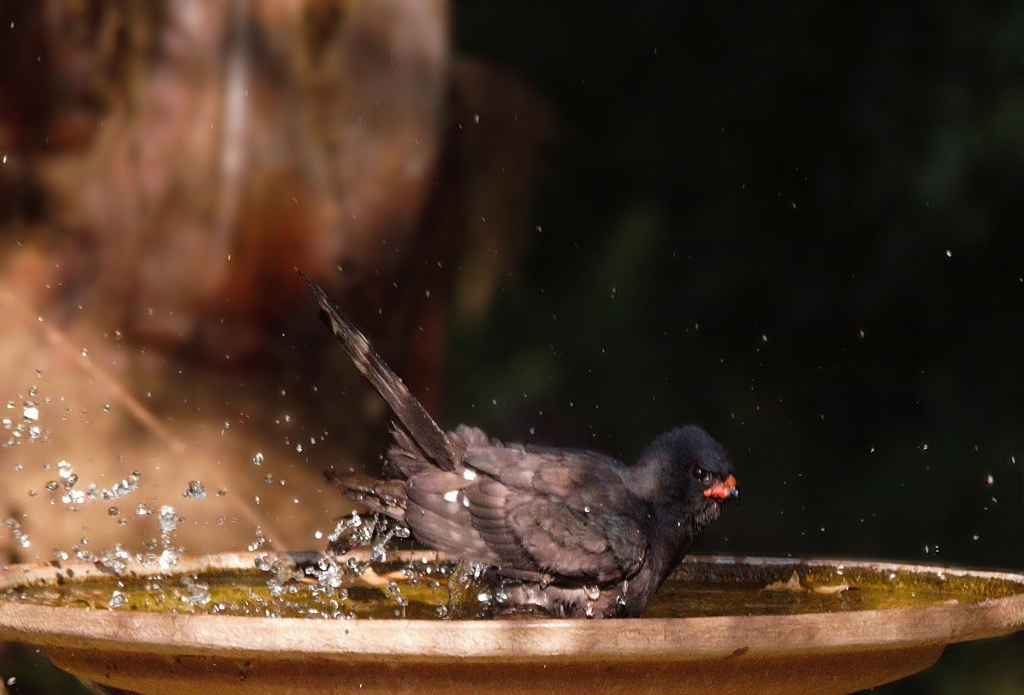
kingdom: Animalia
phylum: Chordata
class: Aves
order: Accipitriformes
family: Accipitridae
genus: Micronisus
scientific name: Micronisus gabar
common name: Gabar goshawk
